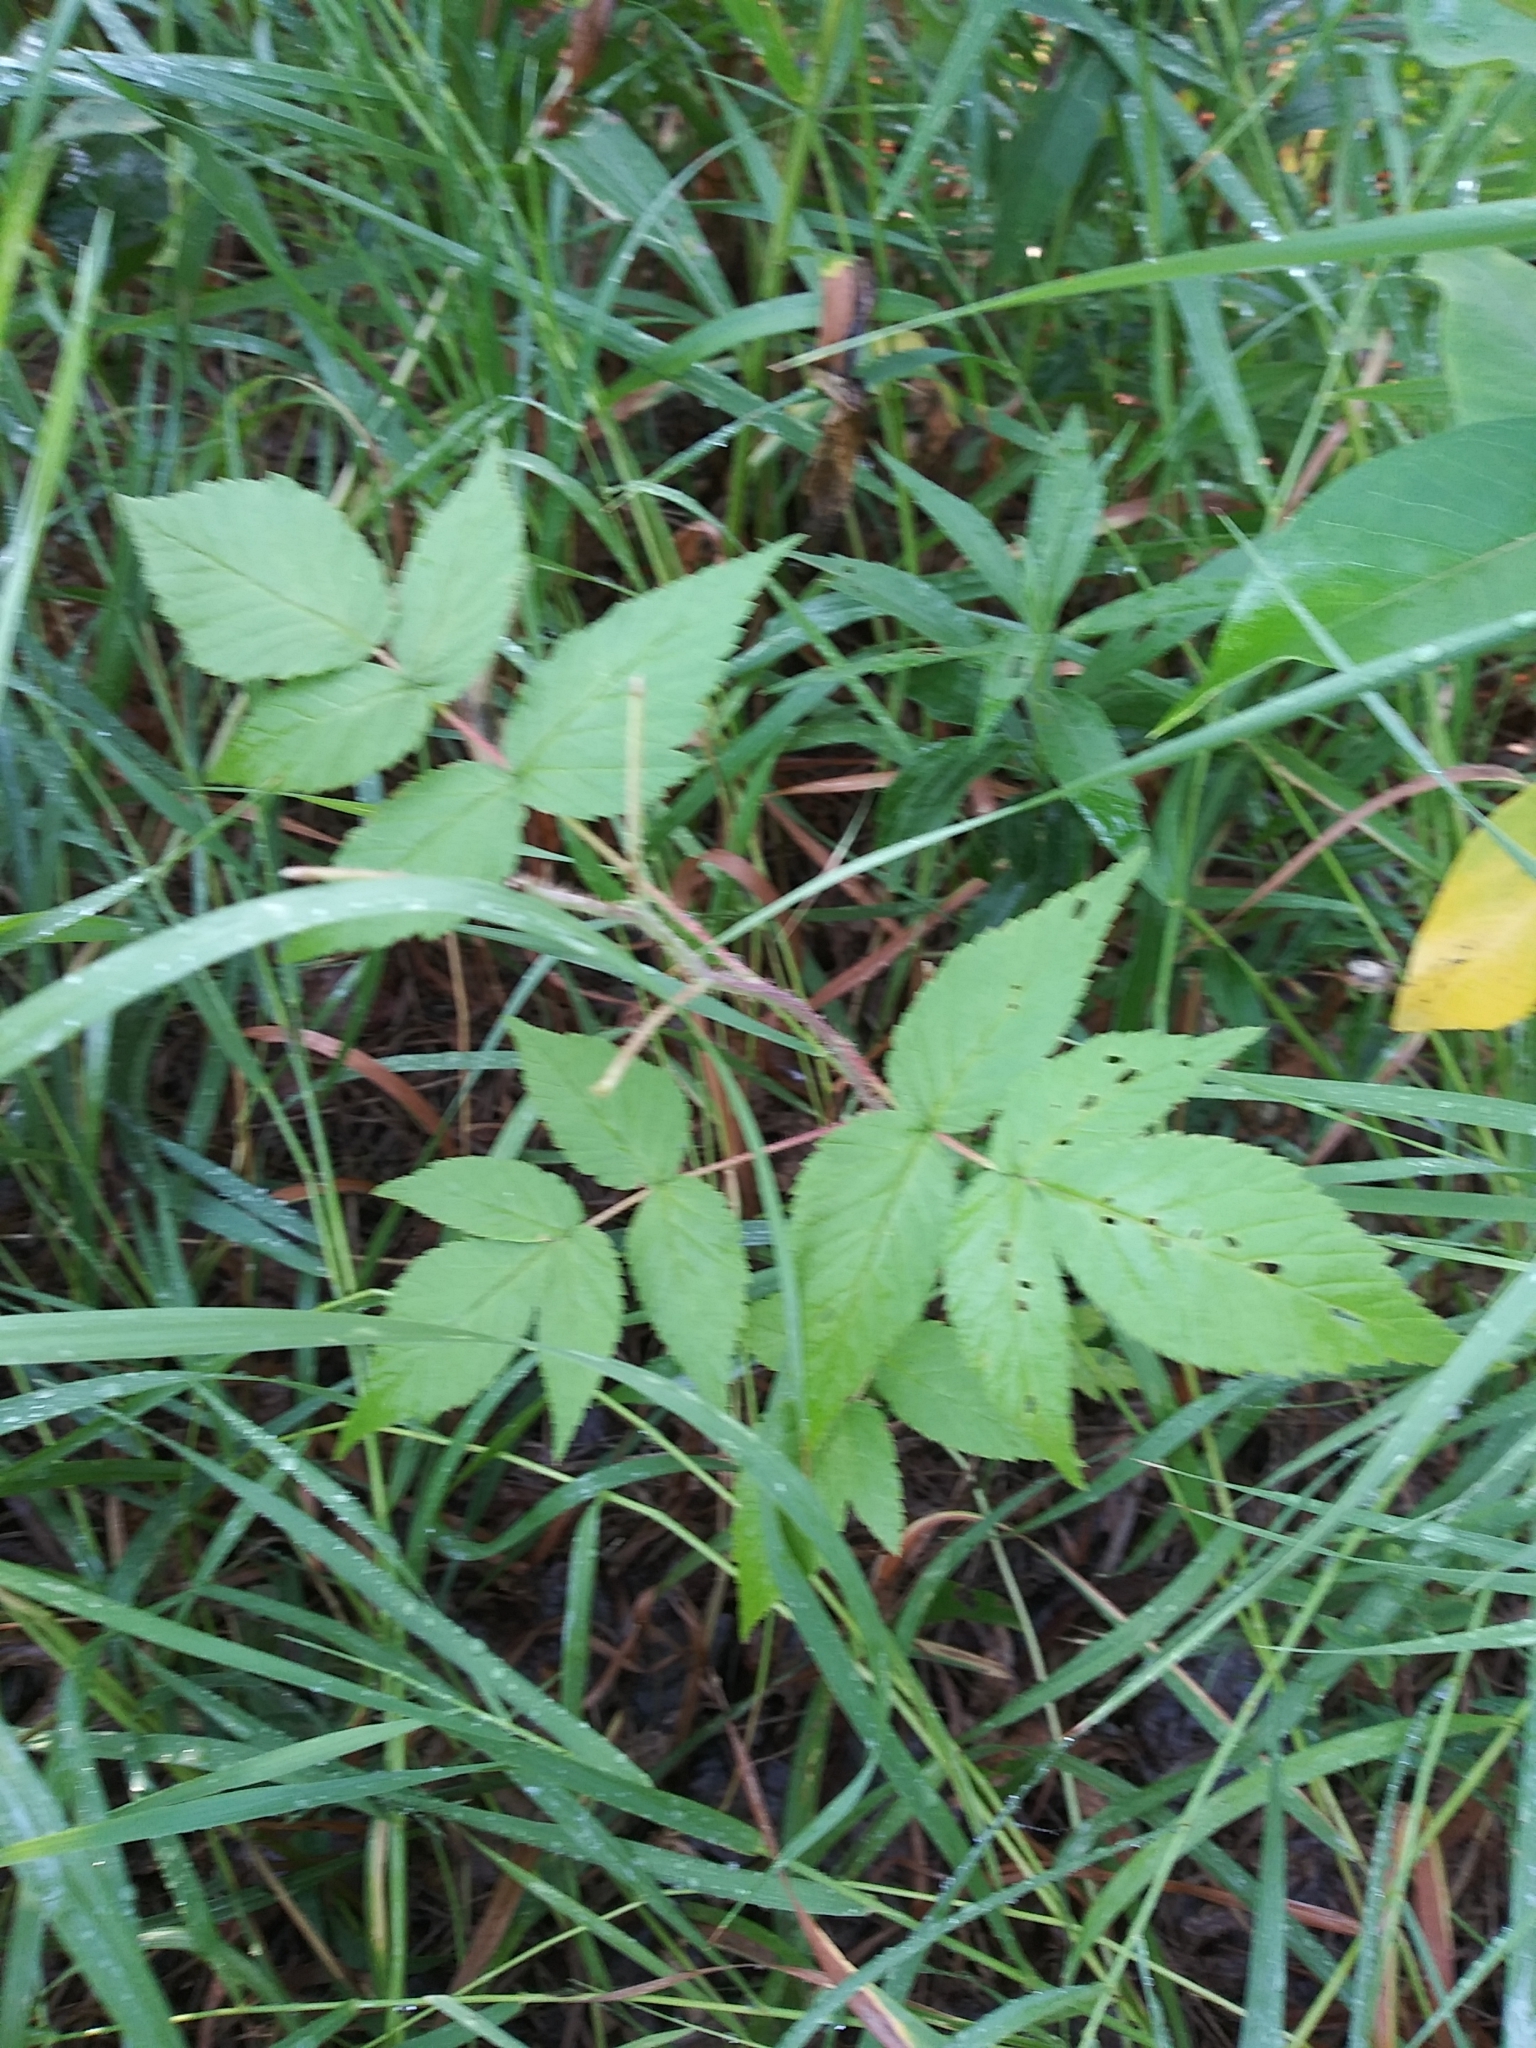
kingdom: Plantae
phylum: Tracheophyta
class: Magnoliopsida
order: Rosales
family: Rosaceae
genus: Rubus
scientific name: Rubus idaeus
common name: Raspberry
